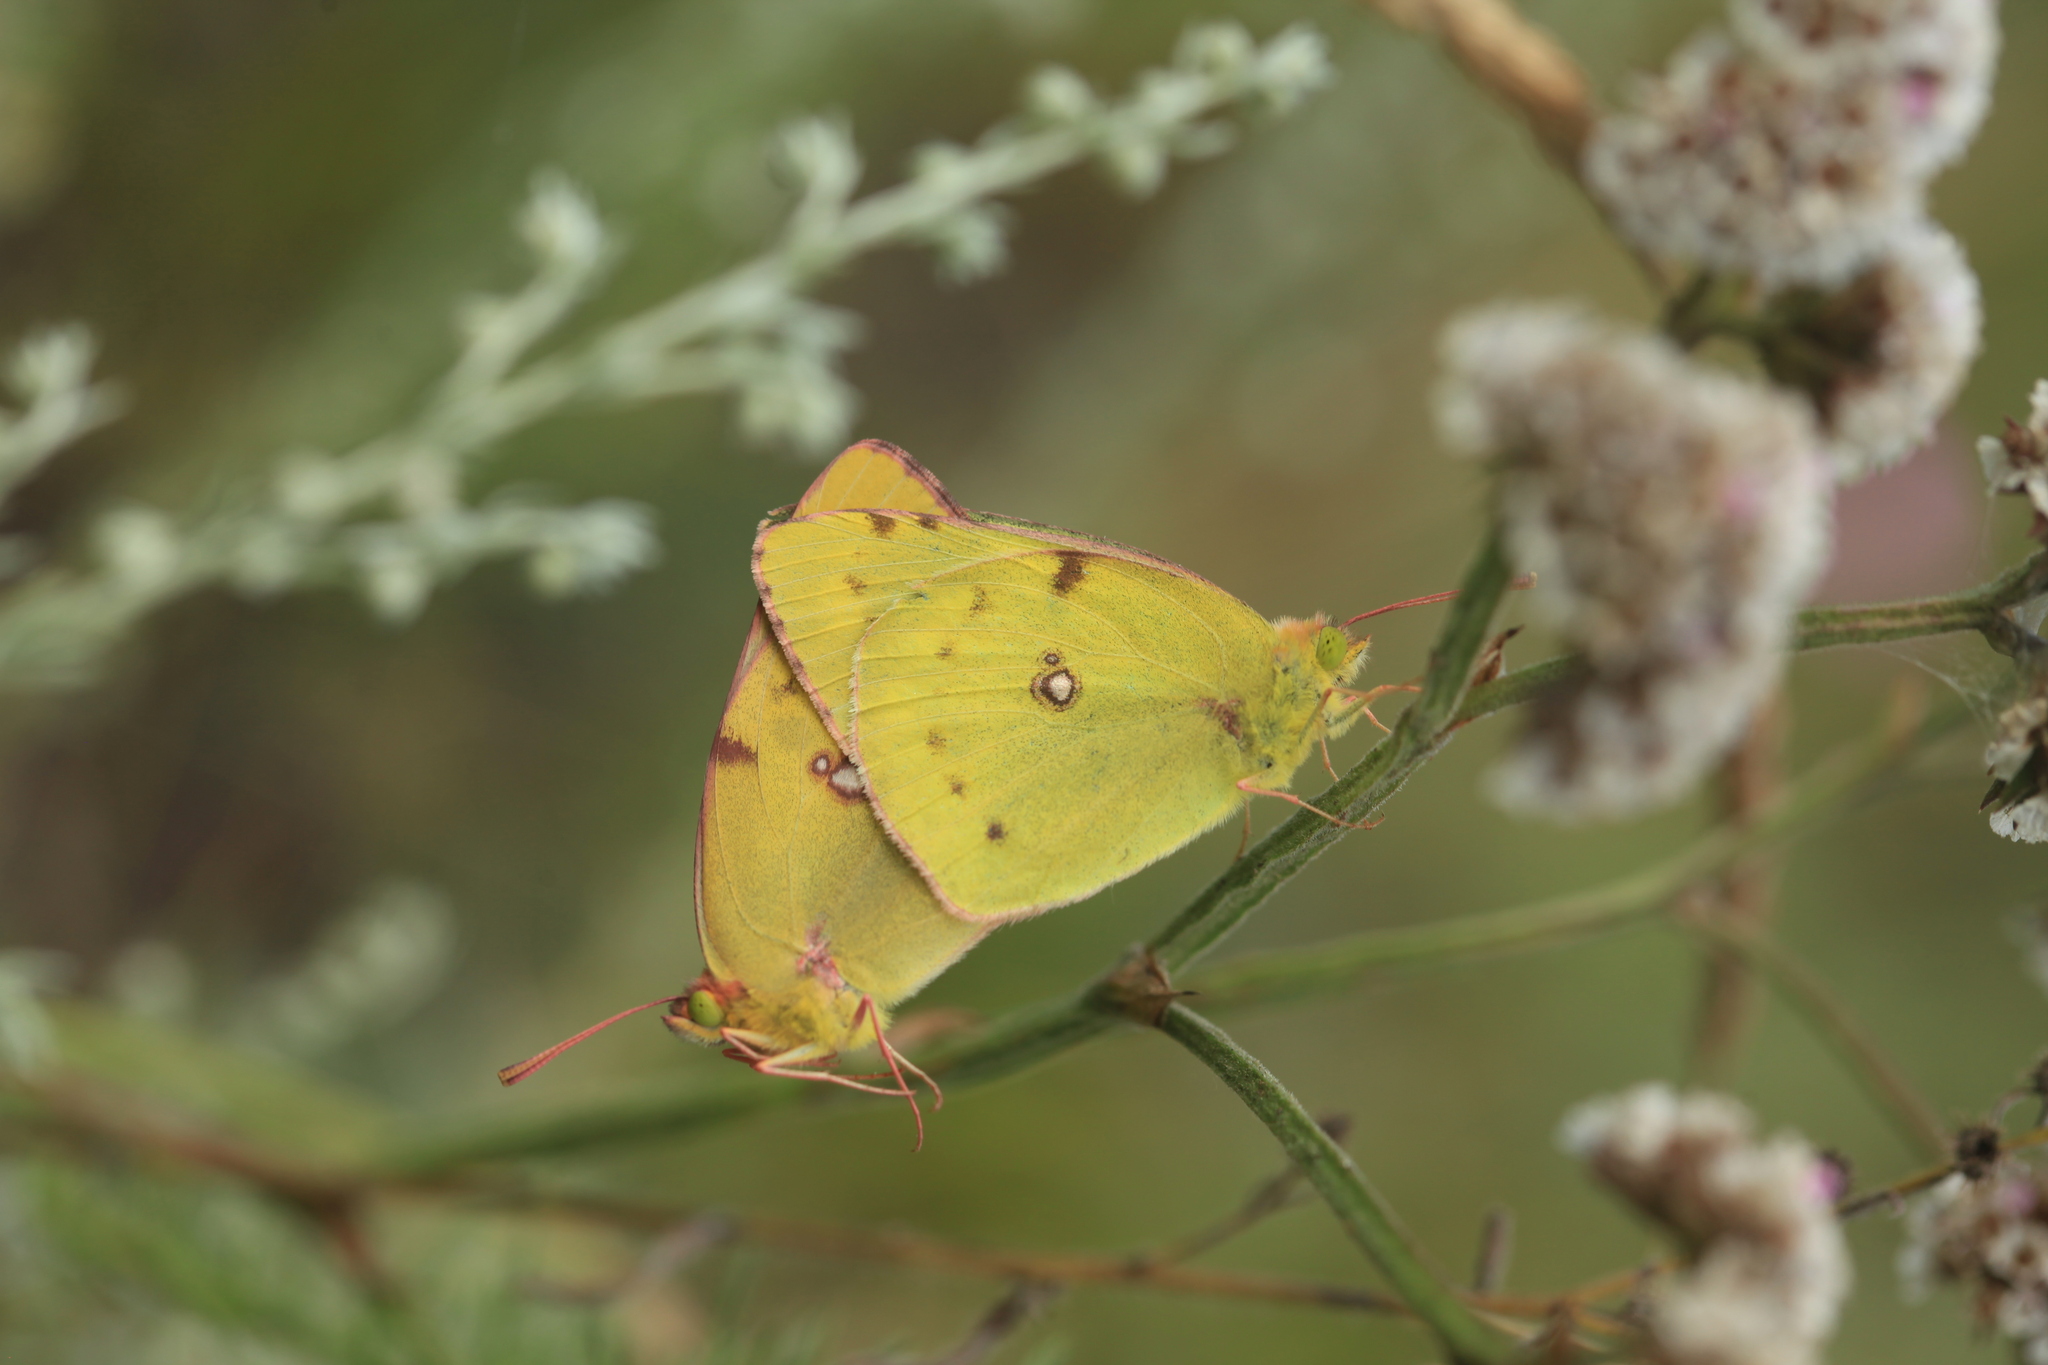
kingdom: Animalia
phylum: Arthropoda
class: Insecta
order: Lepidoptera
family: Pieridae
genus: Colias
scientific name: Colias hyale
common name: Pale clouded yellow
